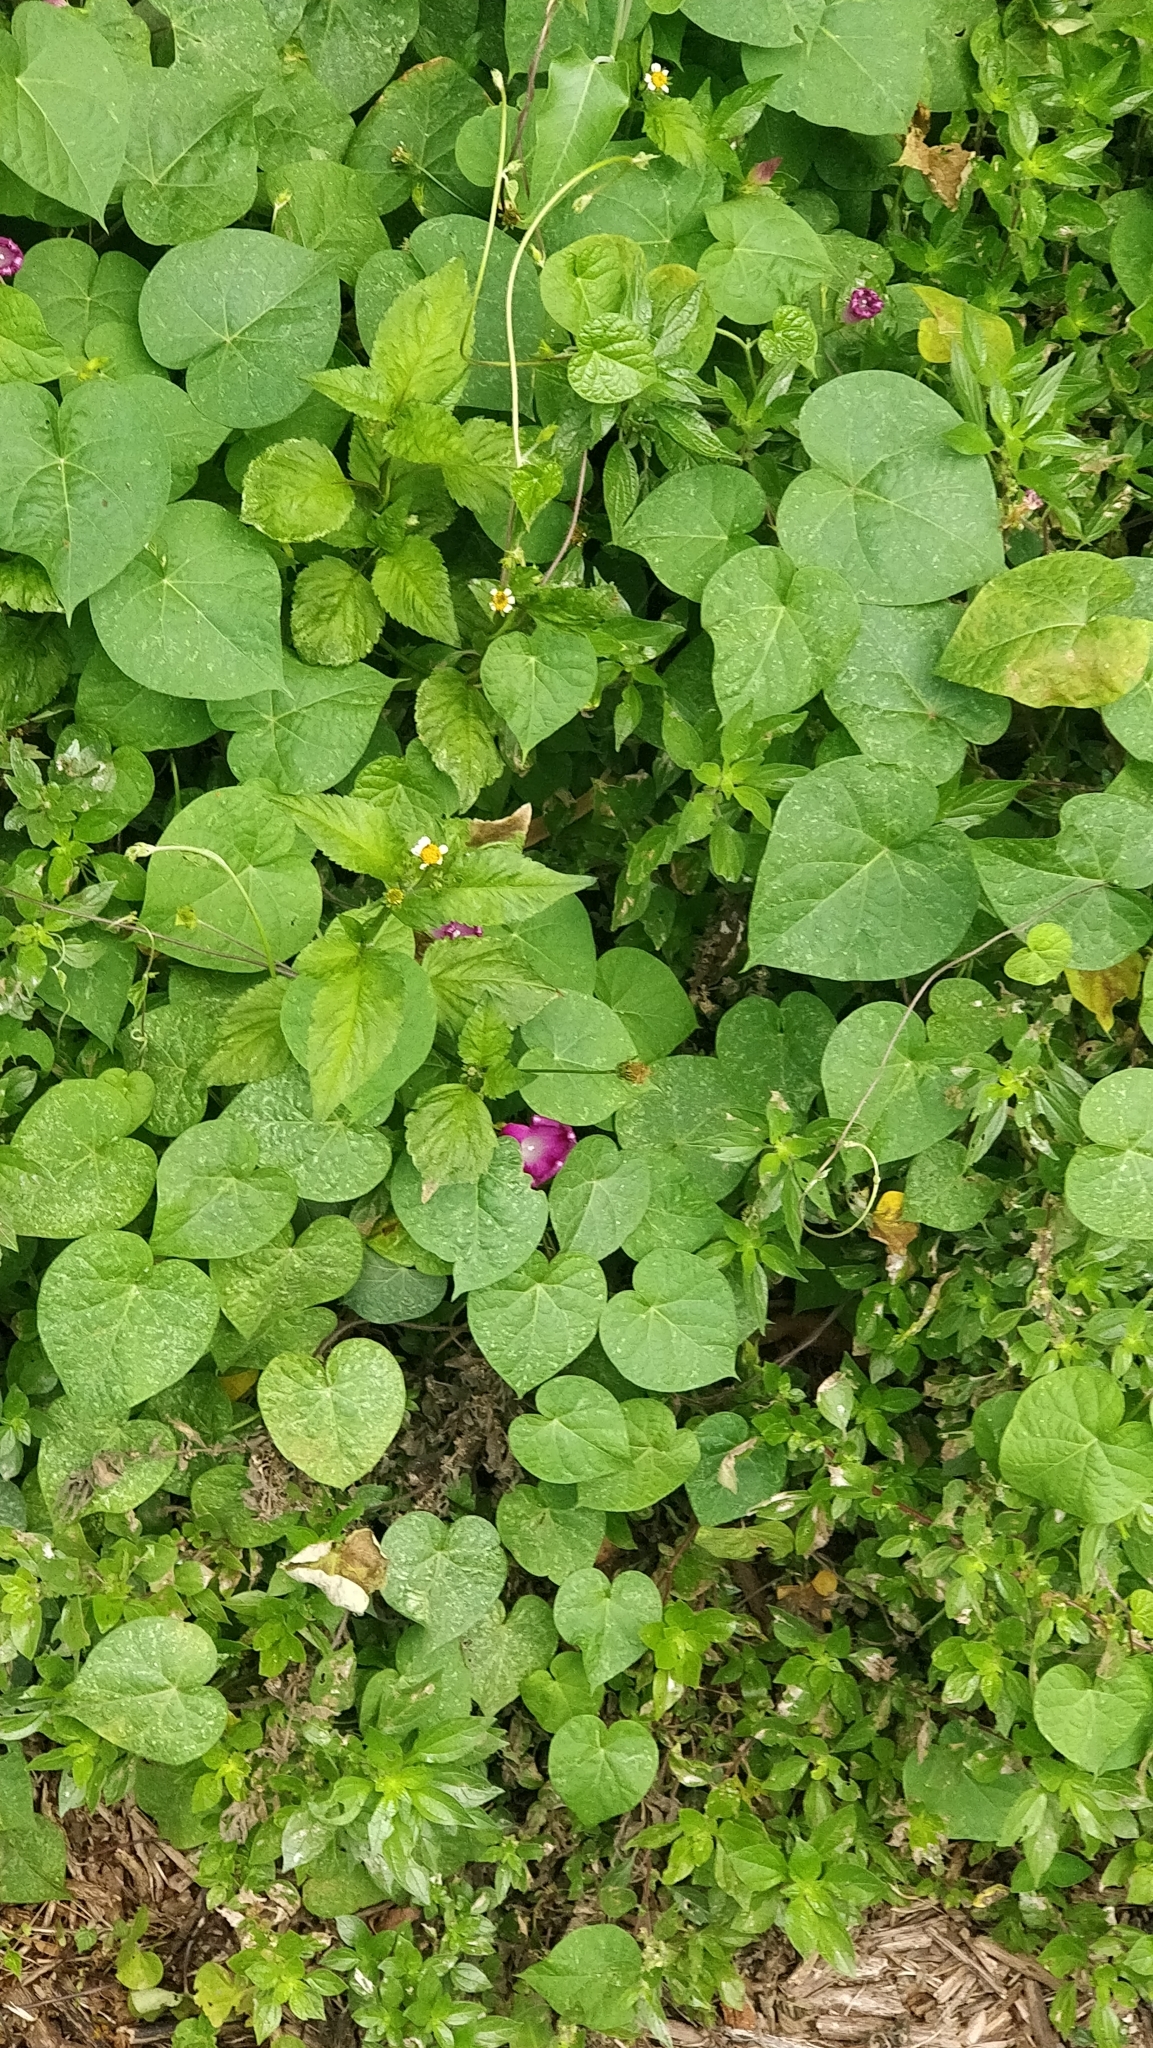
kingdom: Plantae
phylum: Tracheophyta
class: Magnoliopsida
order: Solanales
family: Convolvulaceae
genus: Ipomoea
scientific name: Ipomoea purpurea
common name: Common morning-glory
